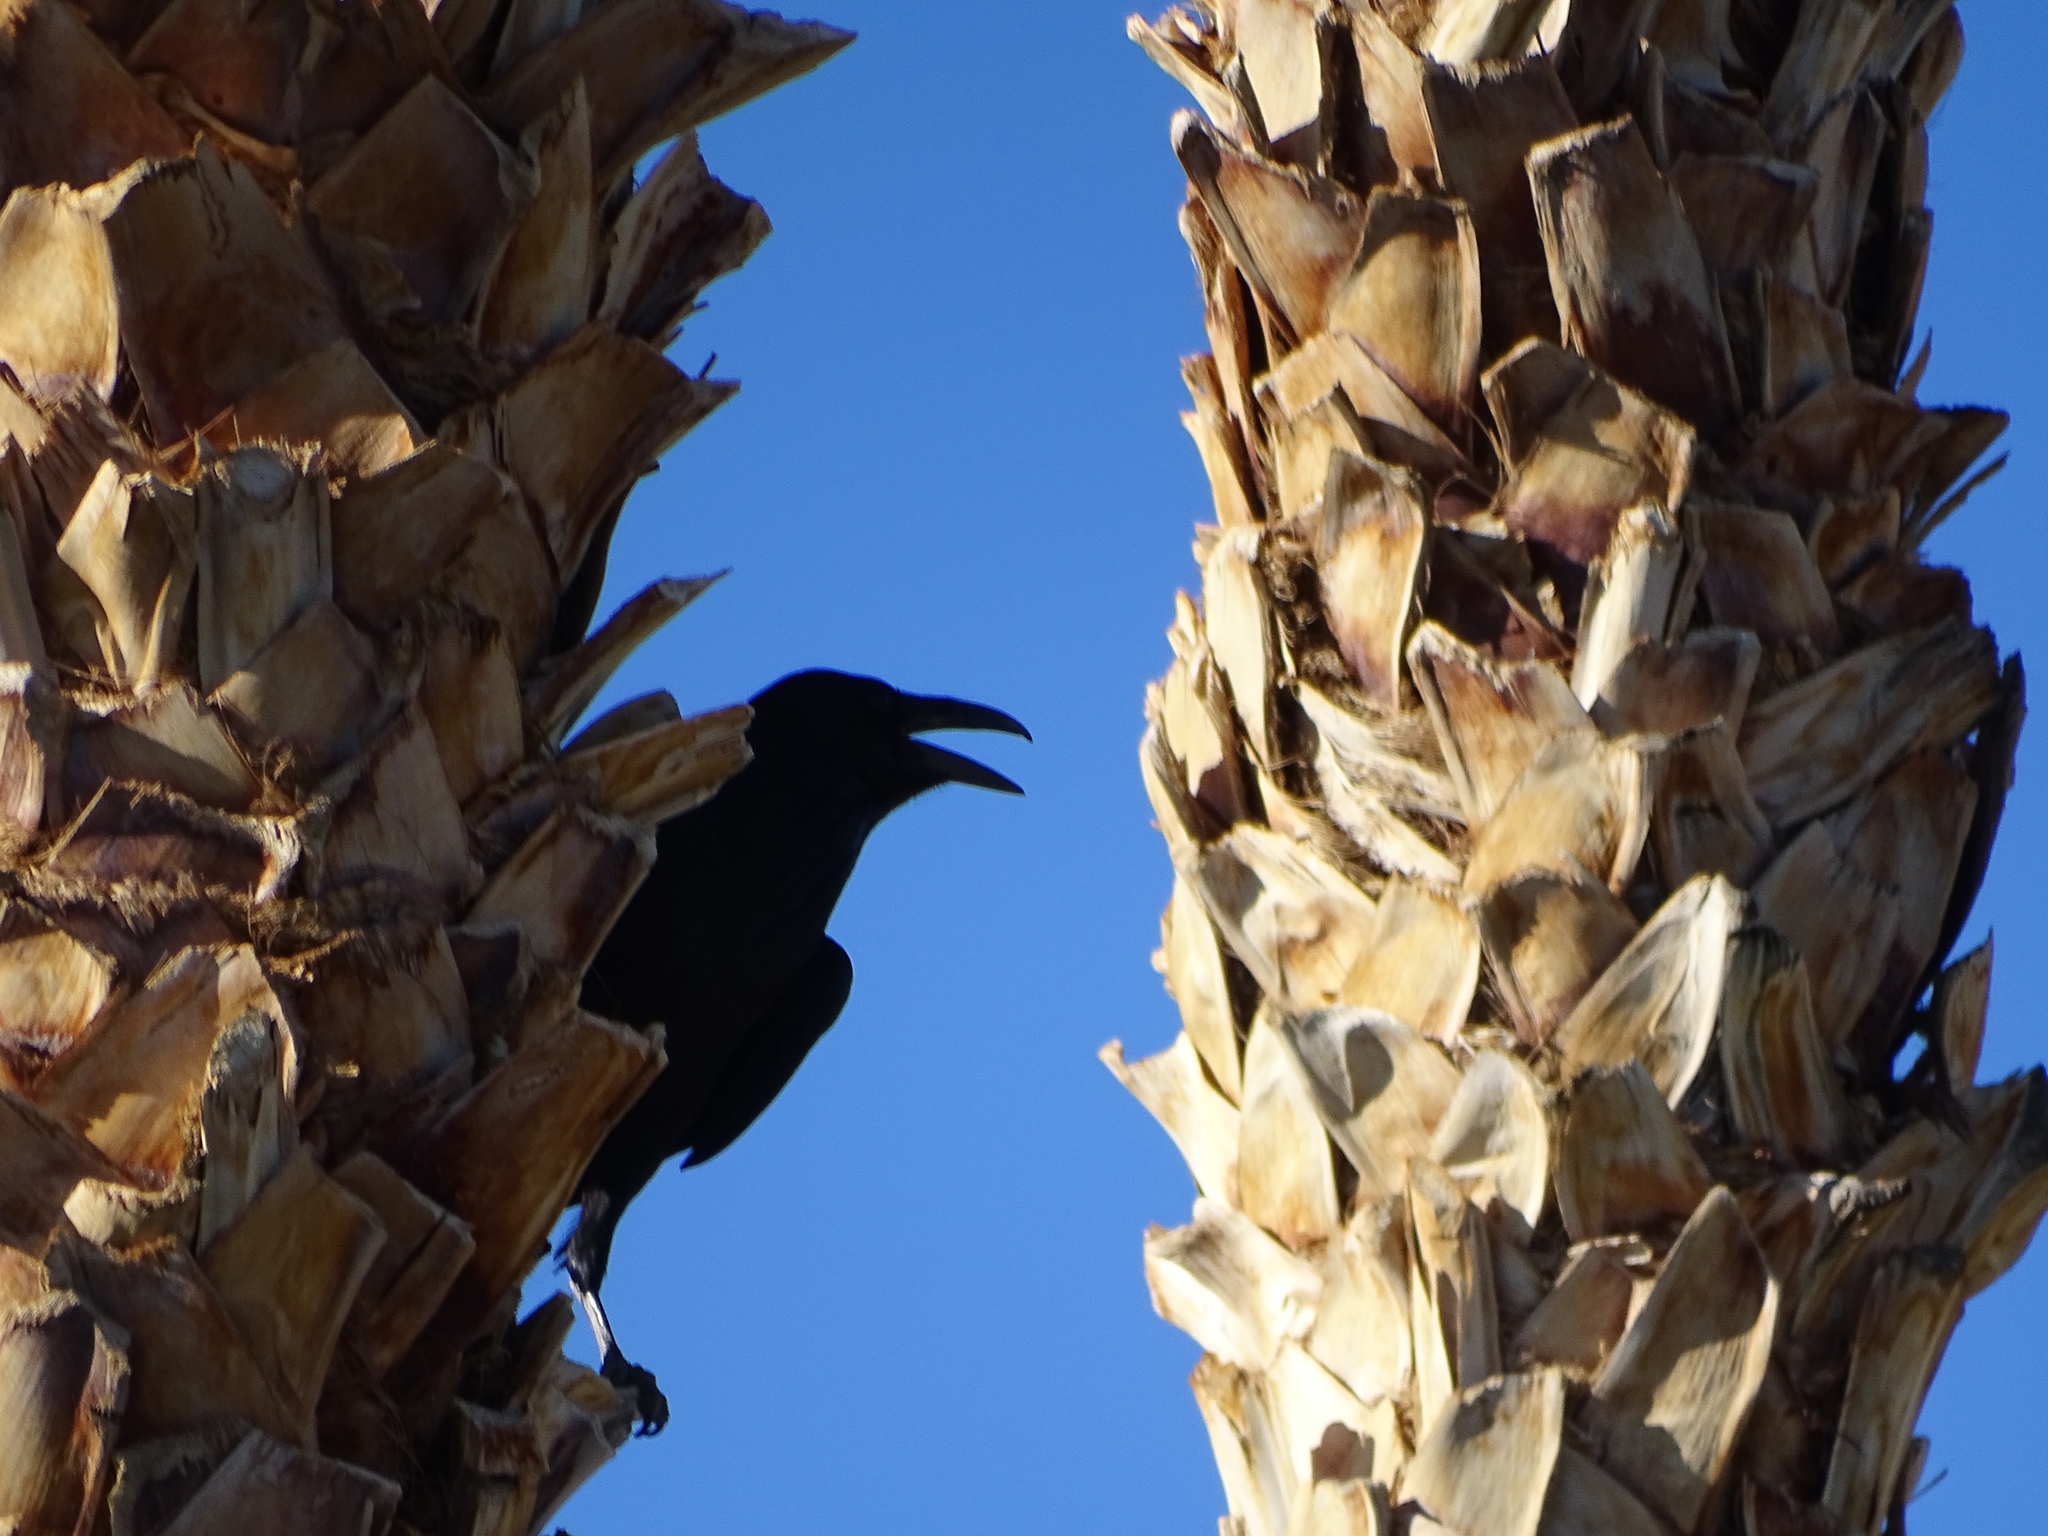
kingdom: Animalia
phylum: Chordata
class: Aves
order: Passeriformes
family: Corvidae
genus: Corvus
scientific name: Corvus corax
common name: Common raven
